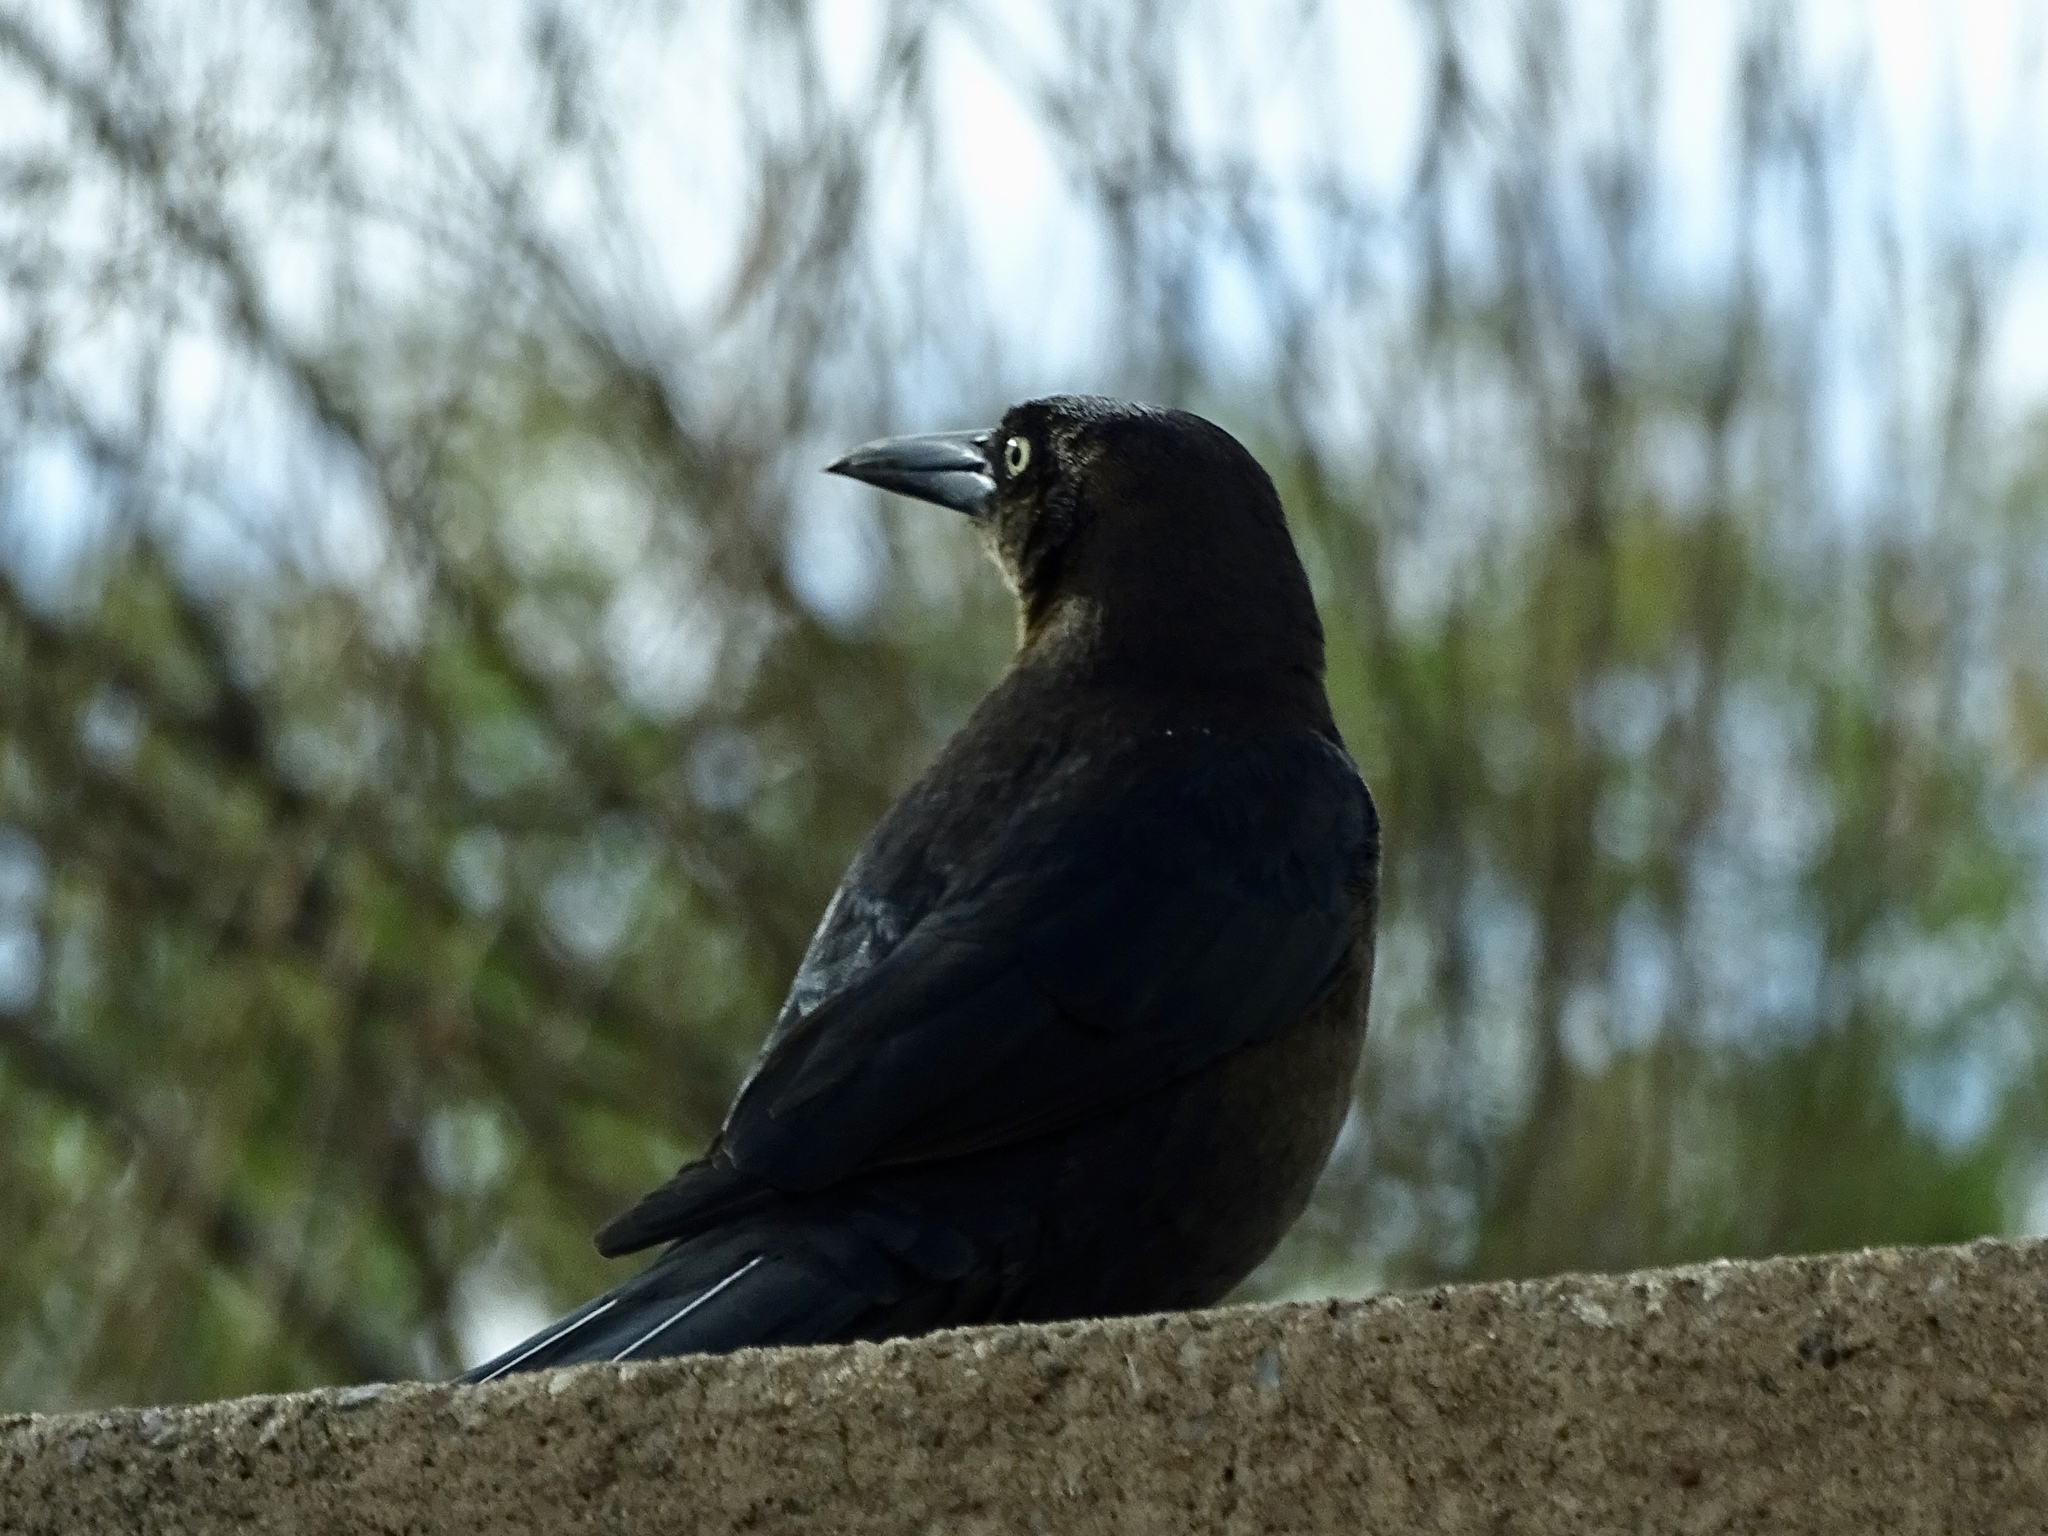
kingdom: Animalia
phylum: Chordata
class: Aves
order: Passeriformes
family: Icteridae
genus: Quiscalus
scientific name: Quiscalus mexicanus
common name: Great-tailed grackle
